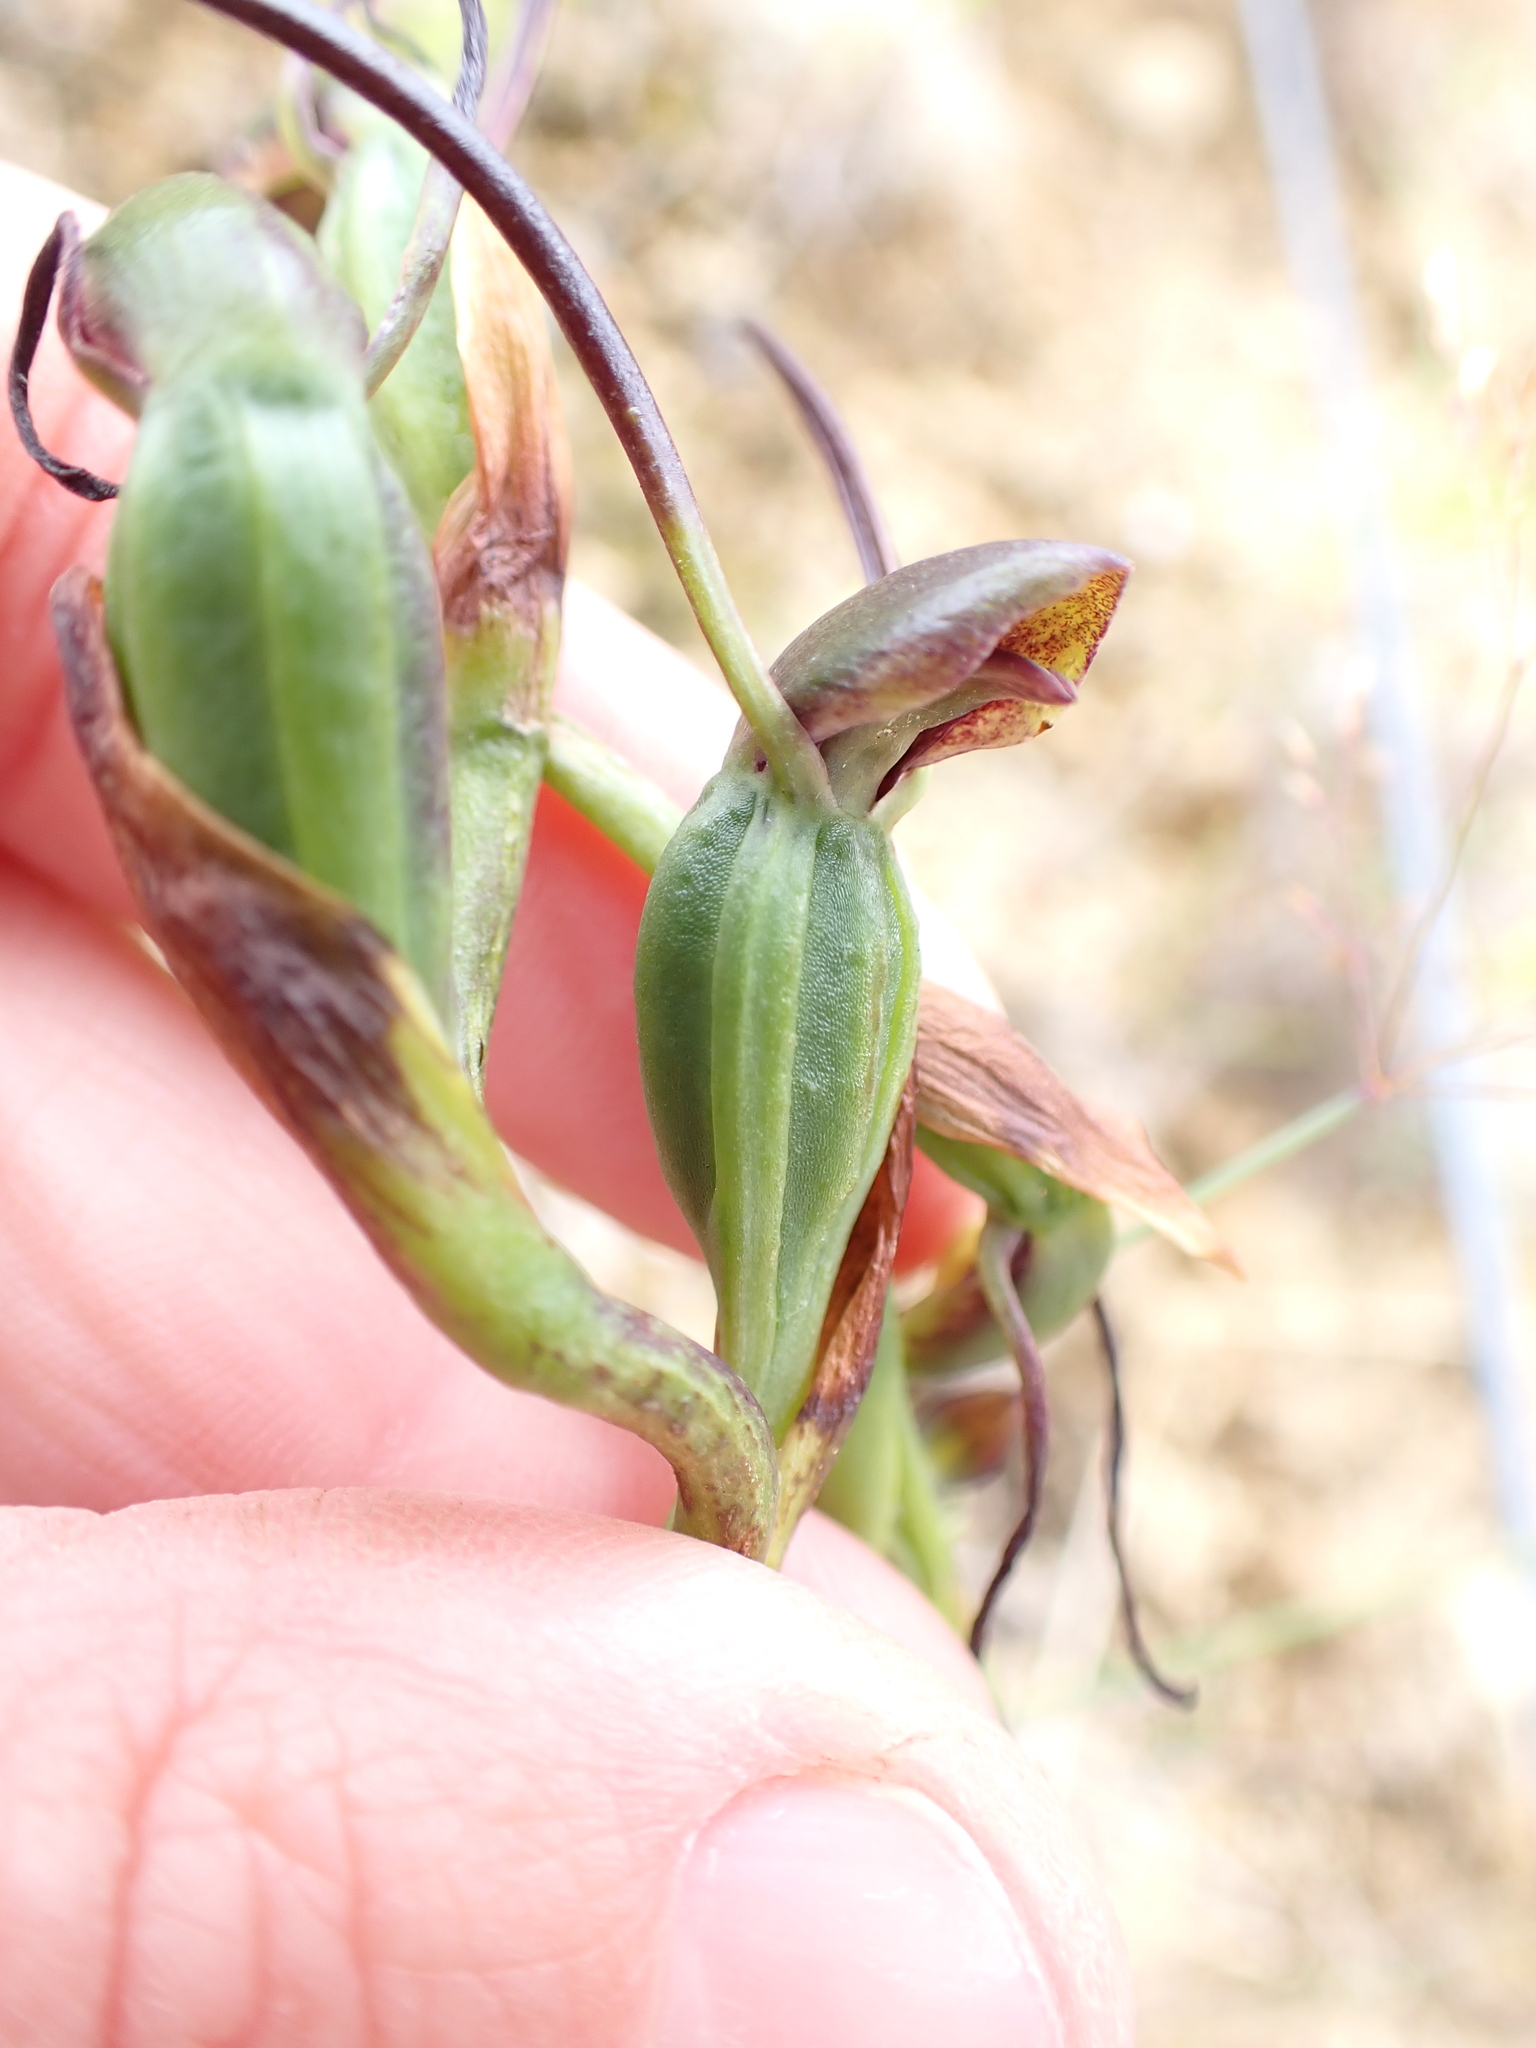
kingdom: Plantae
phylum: Tracheophyta
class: Liliopsida
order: Asparagales
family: Orchidaceae
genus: Orthoceras
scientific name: Orthoceras novae-zeelandiae
